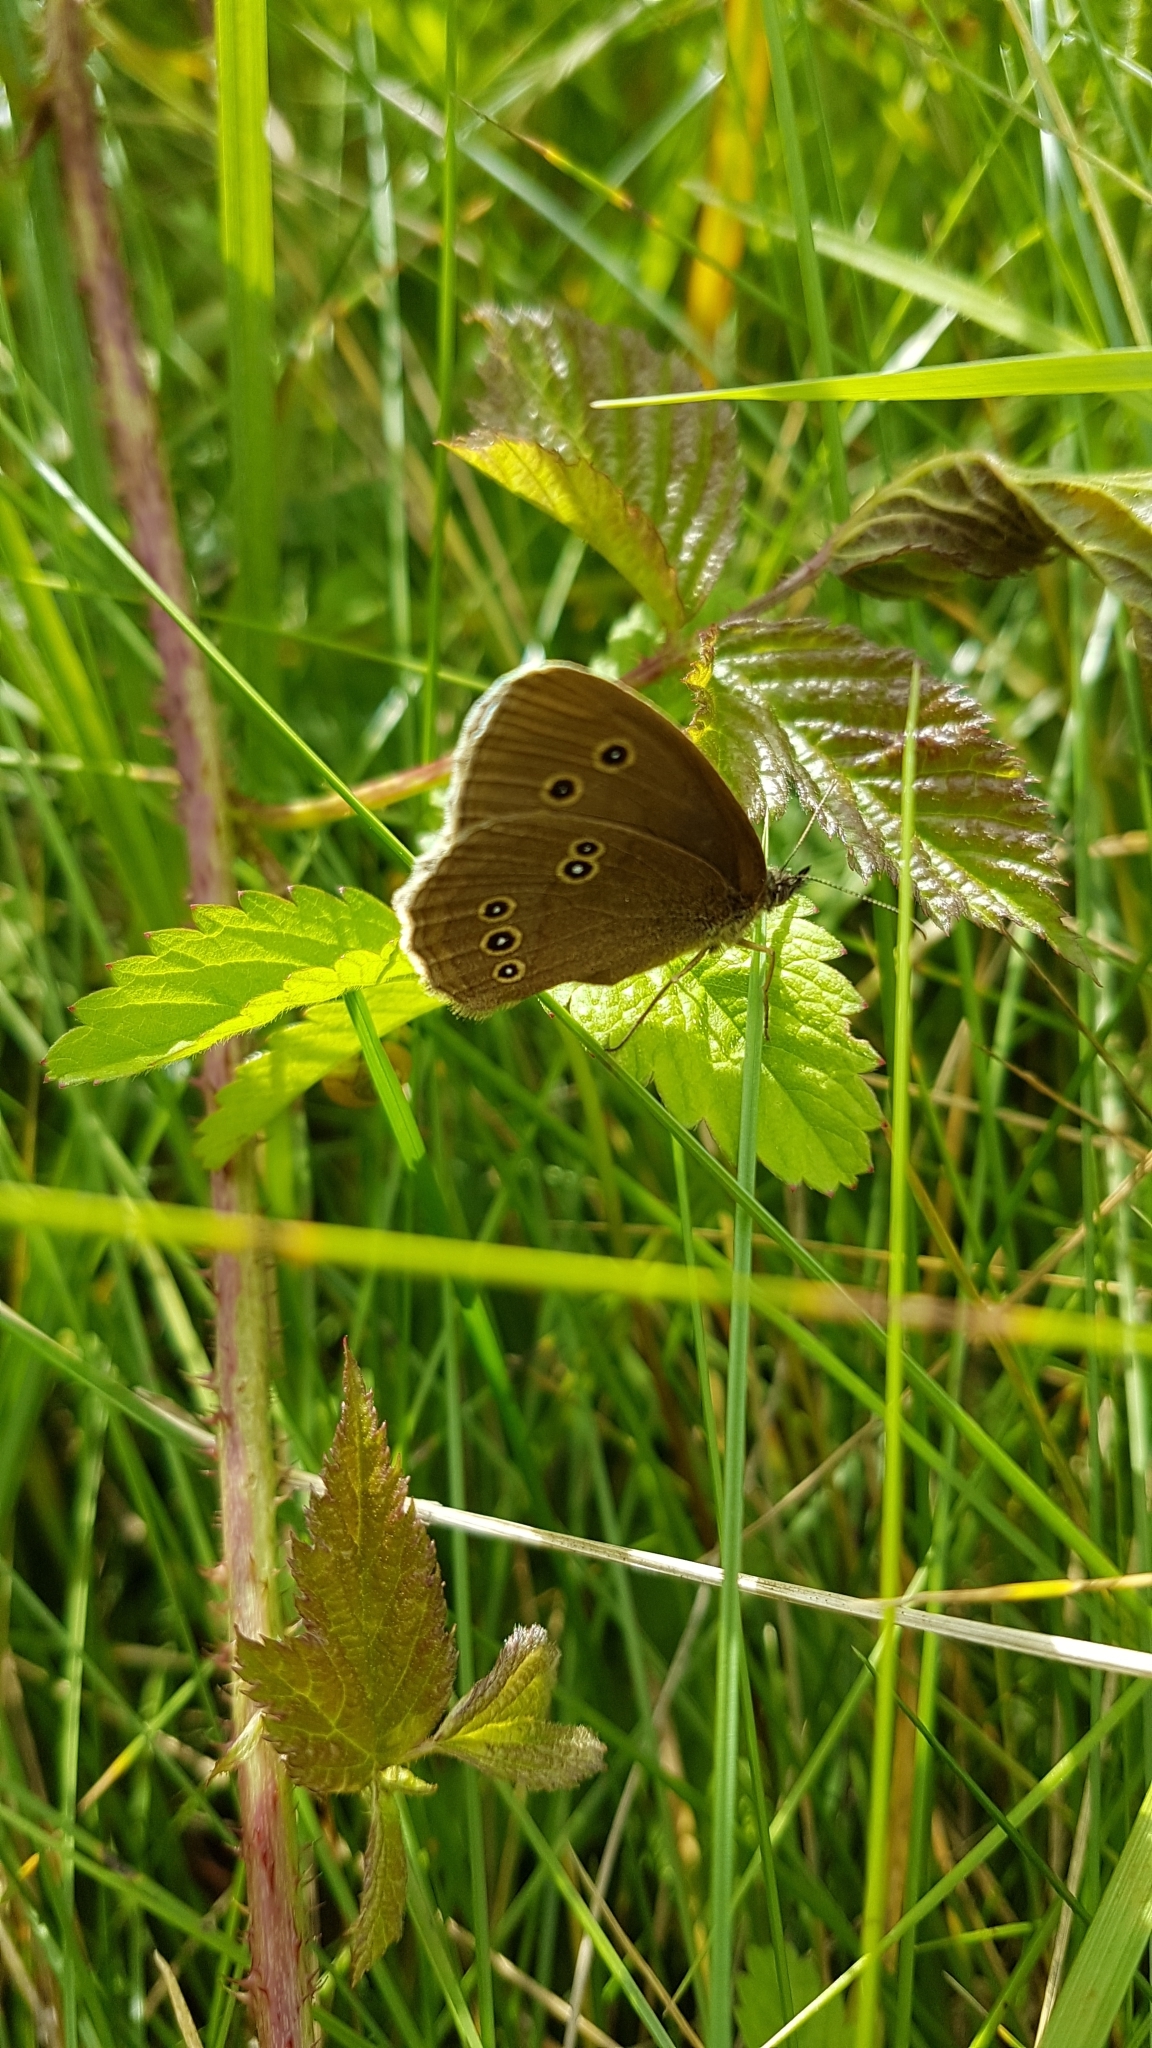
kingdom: Animalia
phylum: Arthropoda
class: Insecta
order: Lepidoptera
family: Nymphalidae
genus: Aphantopus
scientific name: Aphantopus hyperantus
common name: Ringlet
